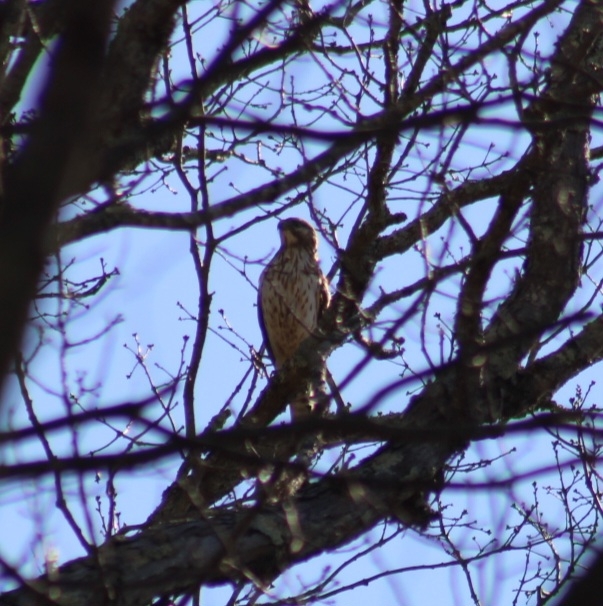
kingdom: Animalia
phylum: Chordata
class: Aves
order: Accipitriformes
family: Accipitridae
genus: Buteo
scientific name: Buteo lineatus
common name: Red-shouldered hawk
